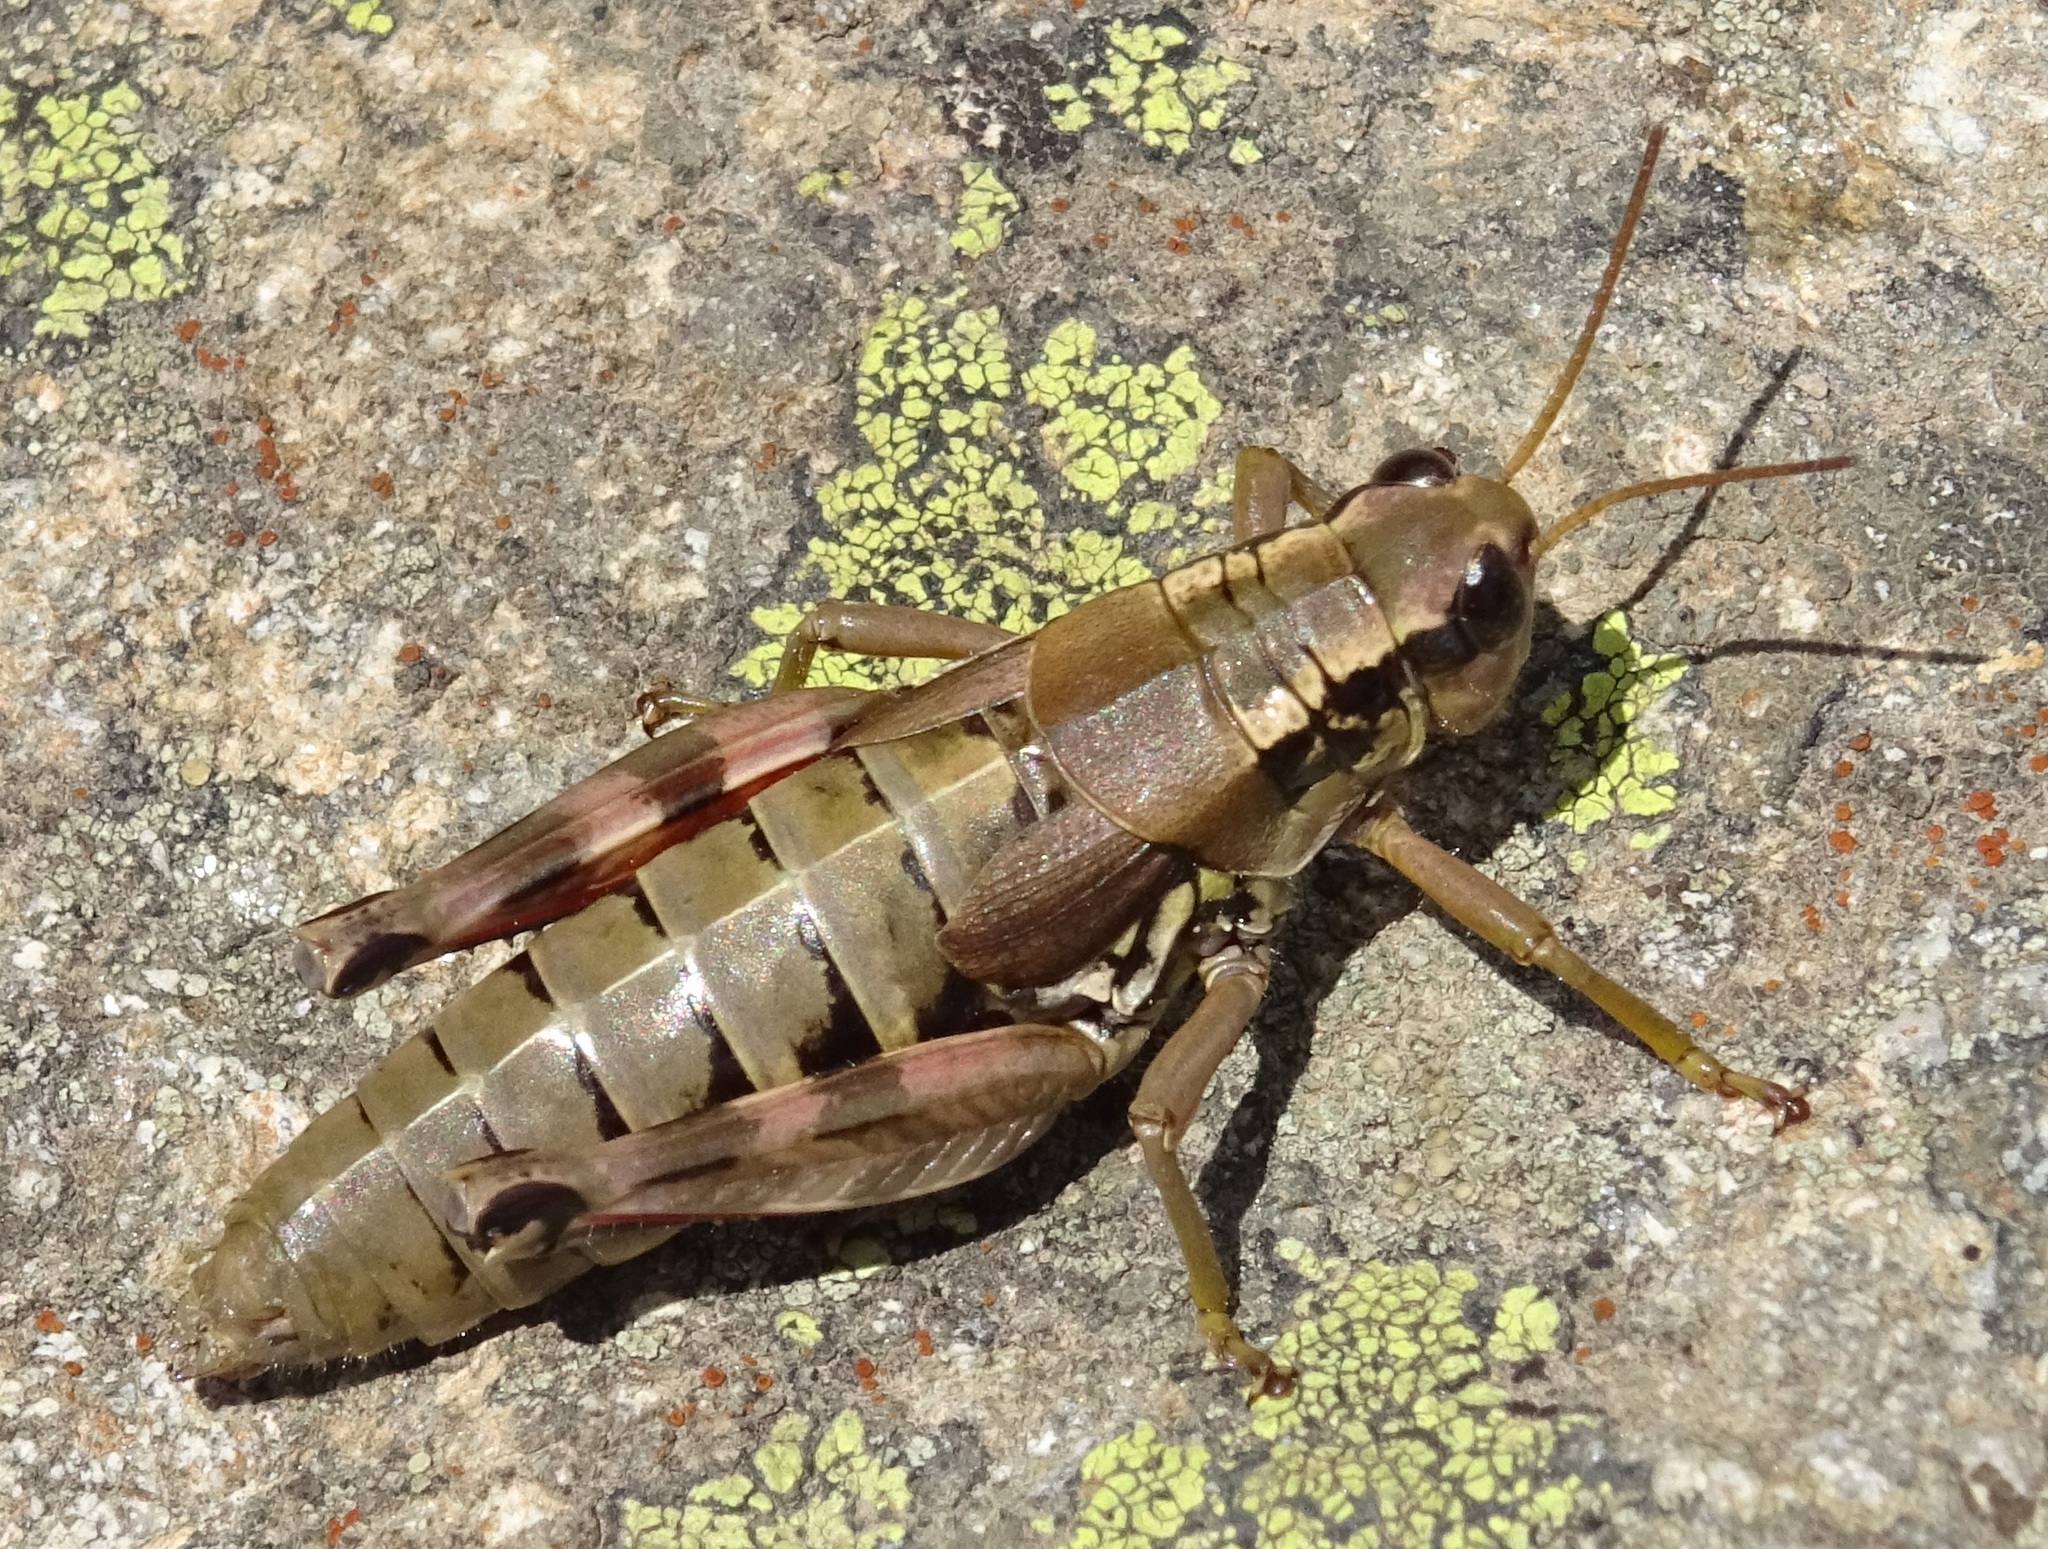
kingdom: Animalia
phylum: Arthropoda
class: Insecta
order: Orthoptera
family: Acrididae
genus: Podisma
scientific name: Podisma pedestris
